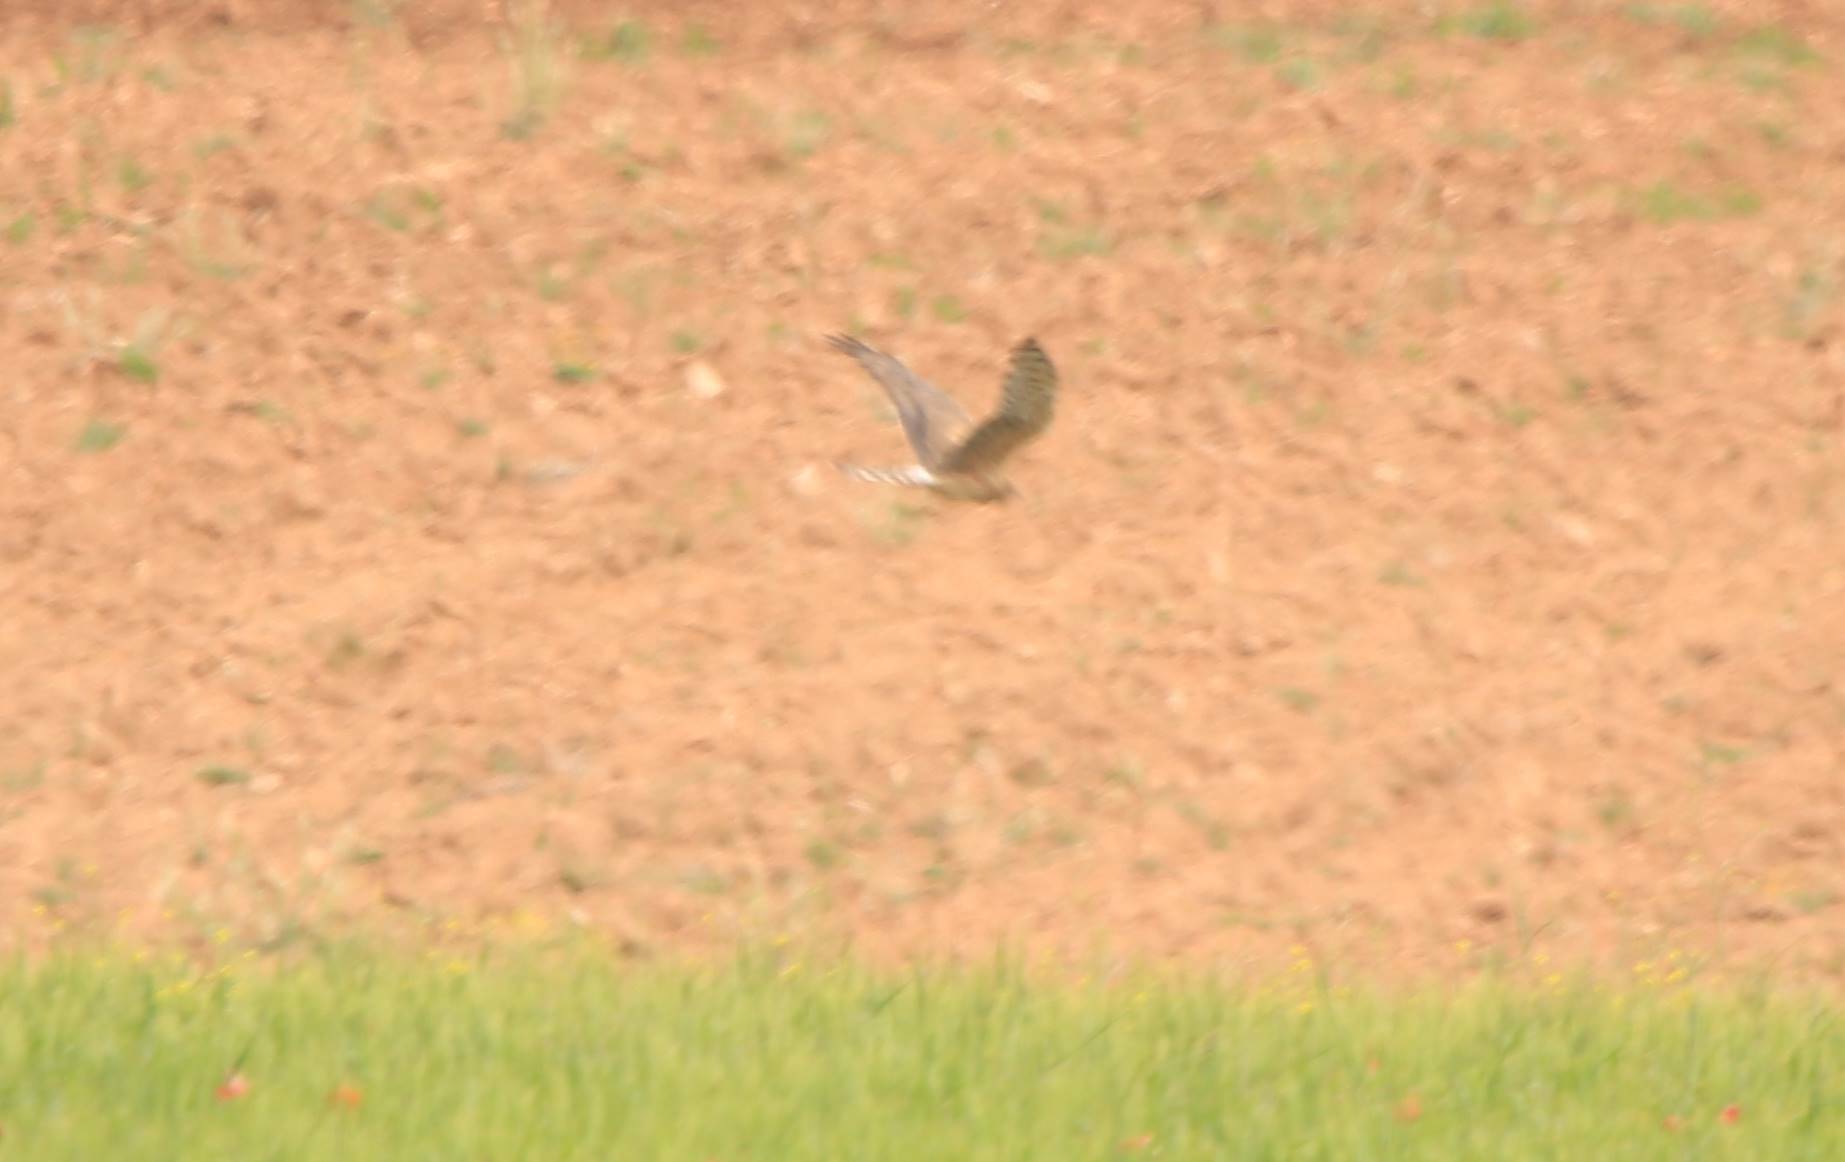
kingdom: Animalia
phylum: Chordata
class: Aves
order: Accipitriformes
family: Accipitridae
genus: Circus
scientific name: Circus pygargus
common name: Montagu's harrier
